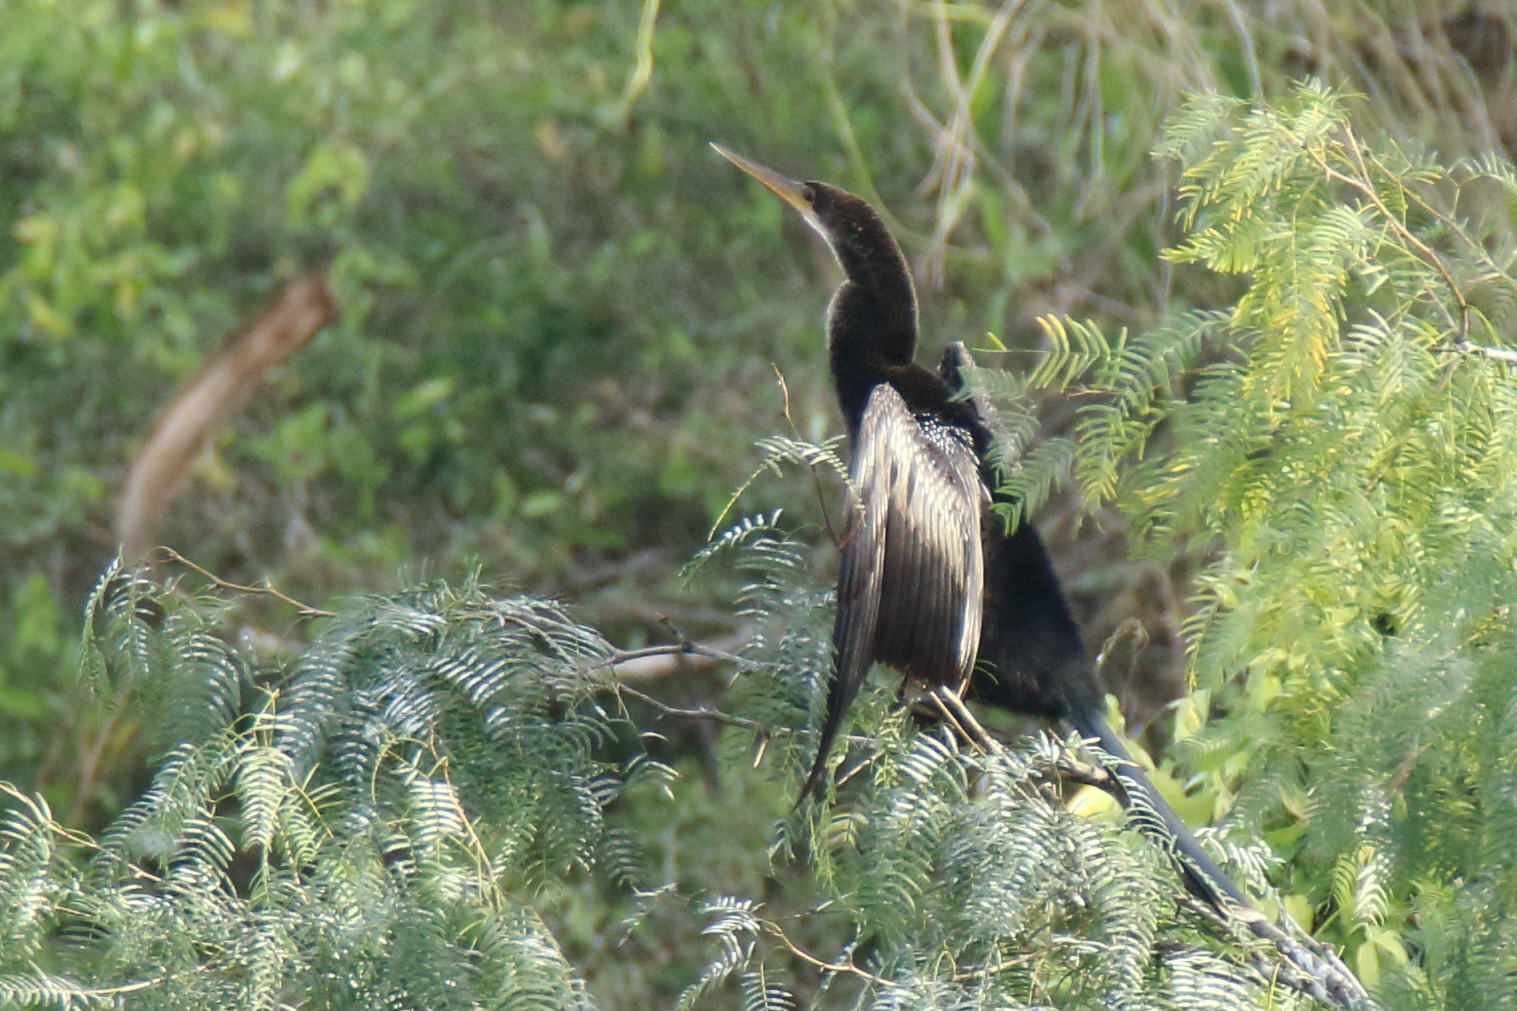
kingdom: Animalia
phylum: Chordata
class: Aves
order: Suliformes
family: Anhingidae
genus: Anhinga
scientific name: Anhinga anhinga
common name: Anhinga
